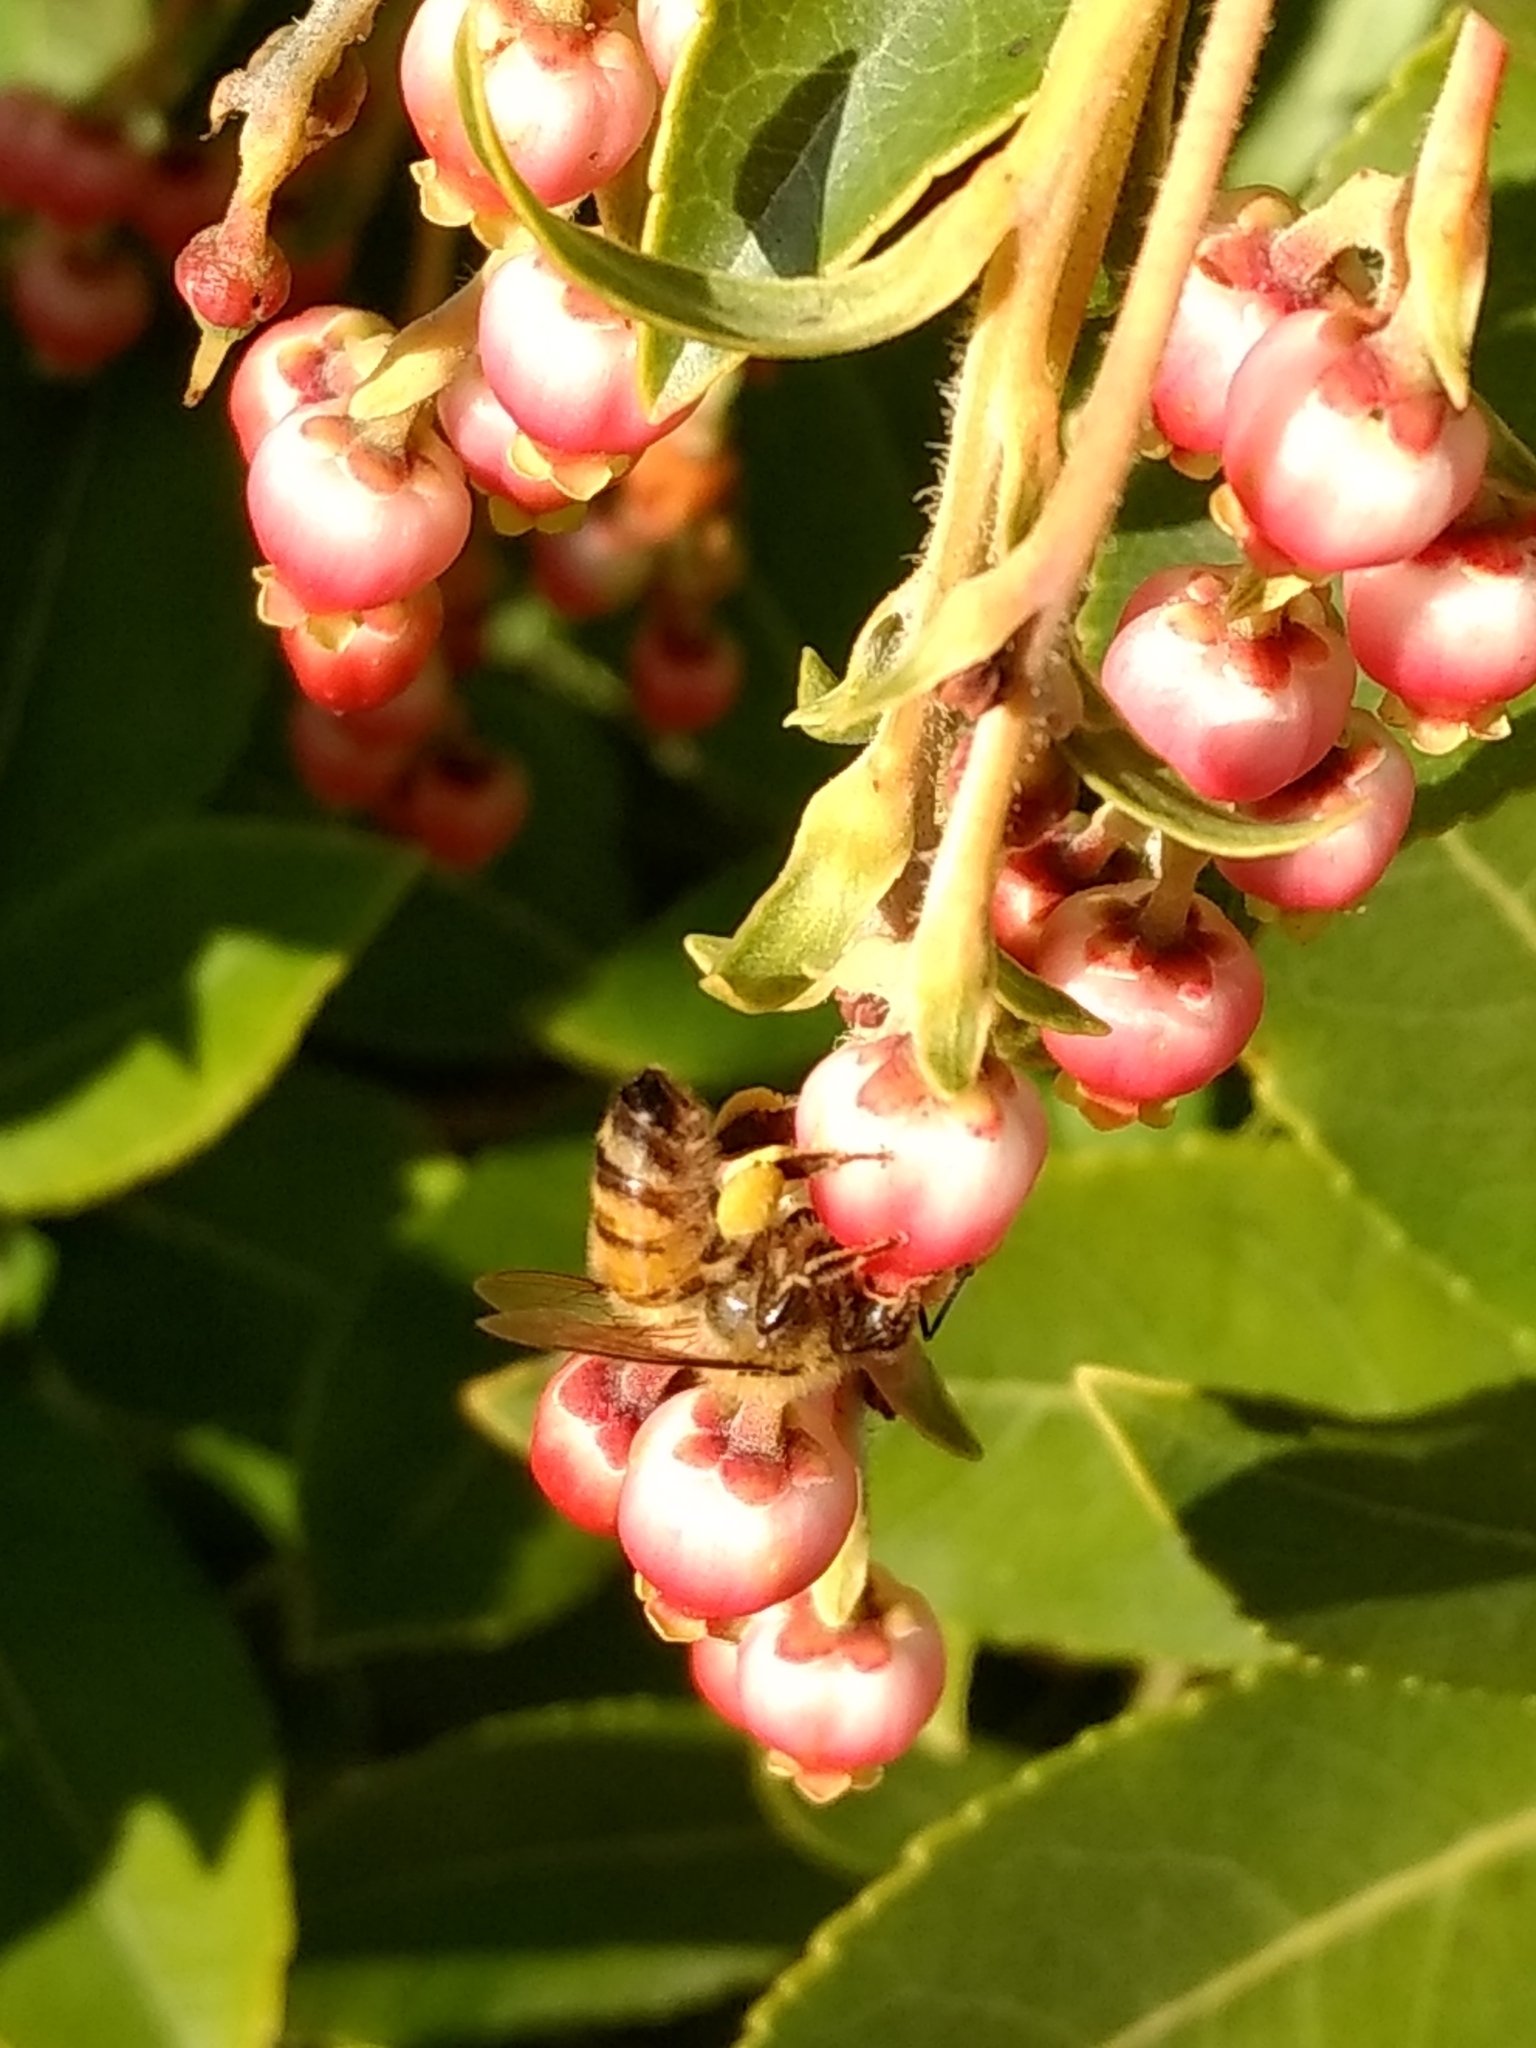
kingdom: Animalia
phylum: Arthropoda
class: Insecta
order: Hymenoptera
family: Apidae
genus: Apis
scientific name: Apis mellifera
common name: Honey bee
